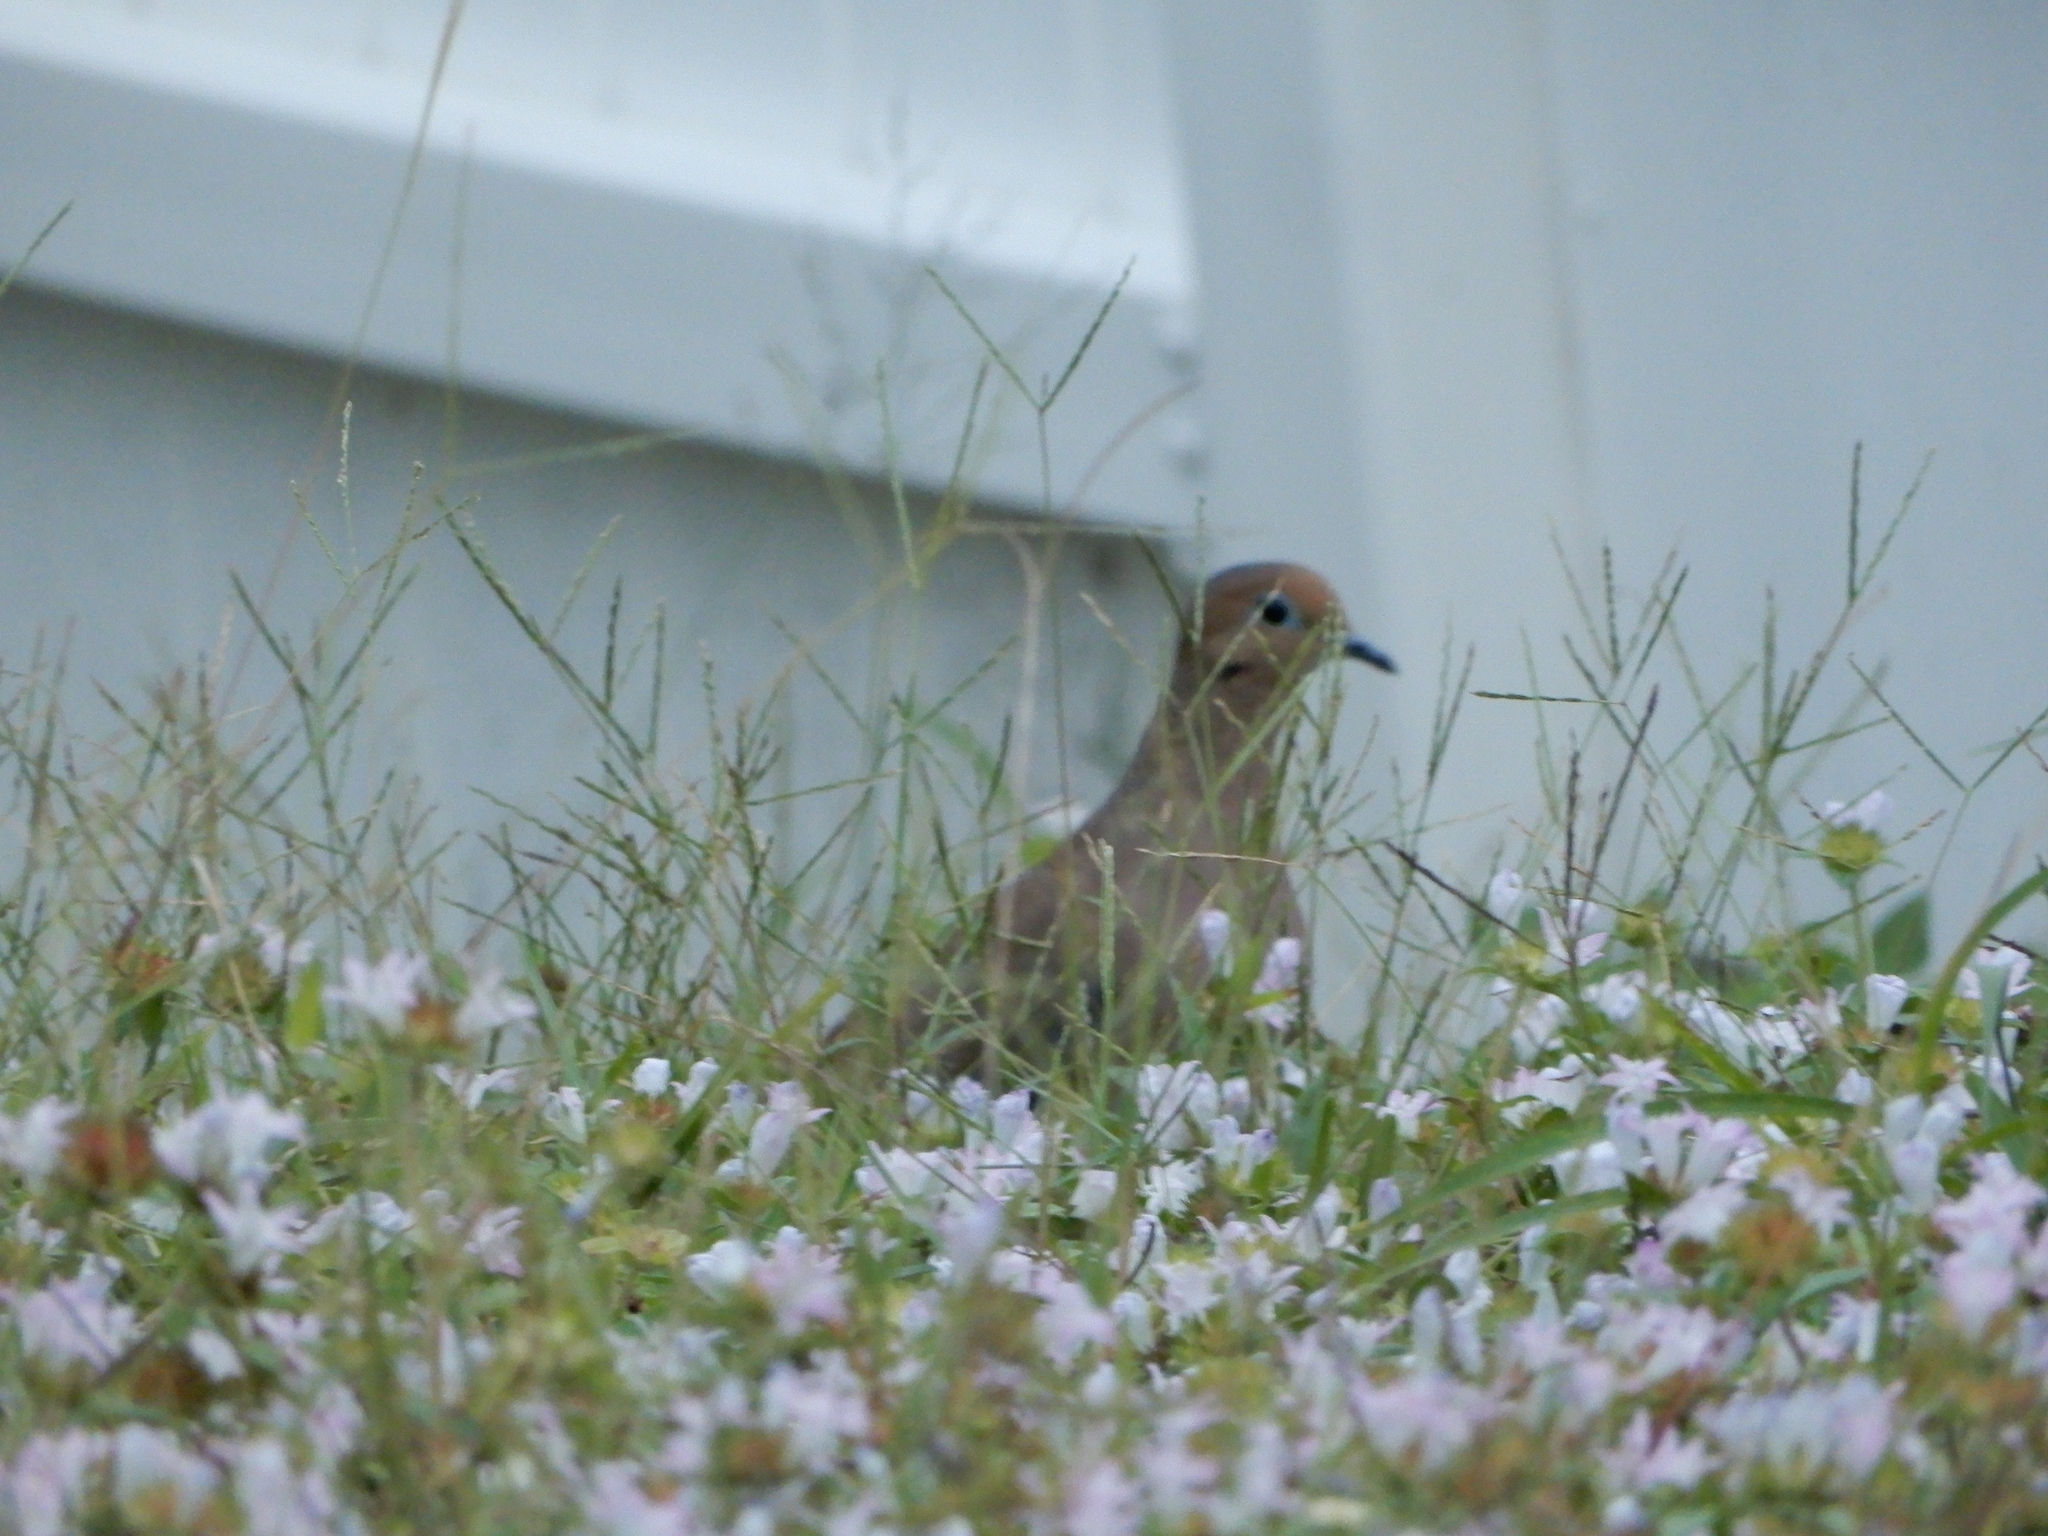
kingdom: Animalia
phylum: Chordata
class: Aves
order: Columbiformes
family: Columbidae
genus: Zenaida
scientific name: Zenaida macroura
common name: Mourning dove
